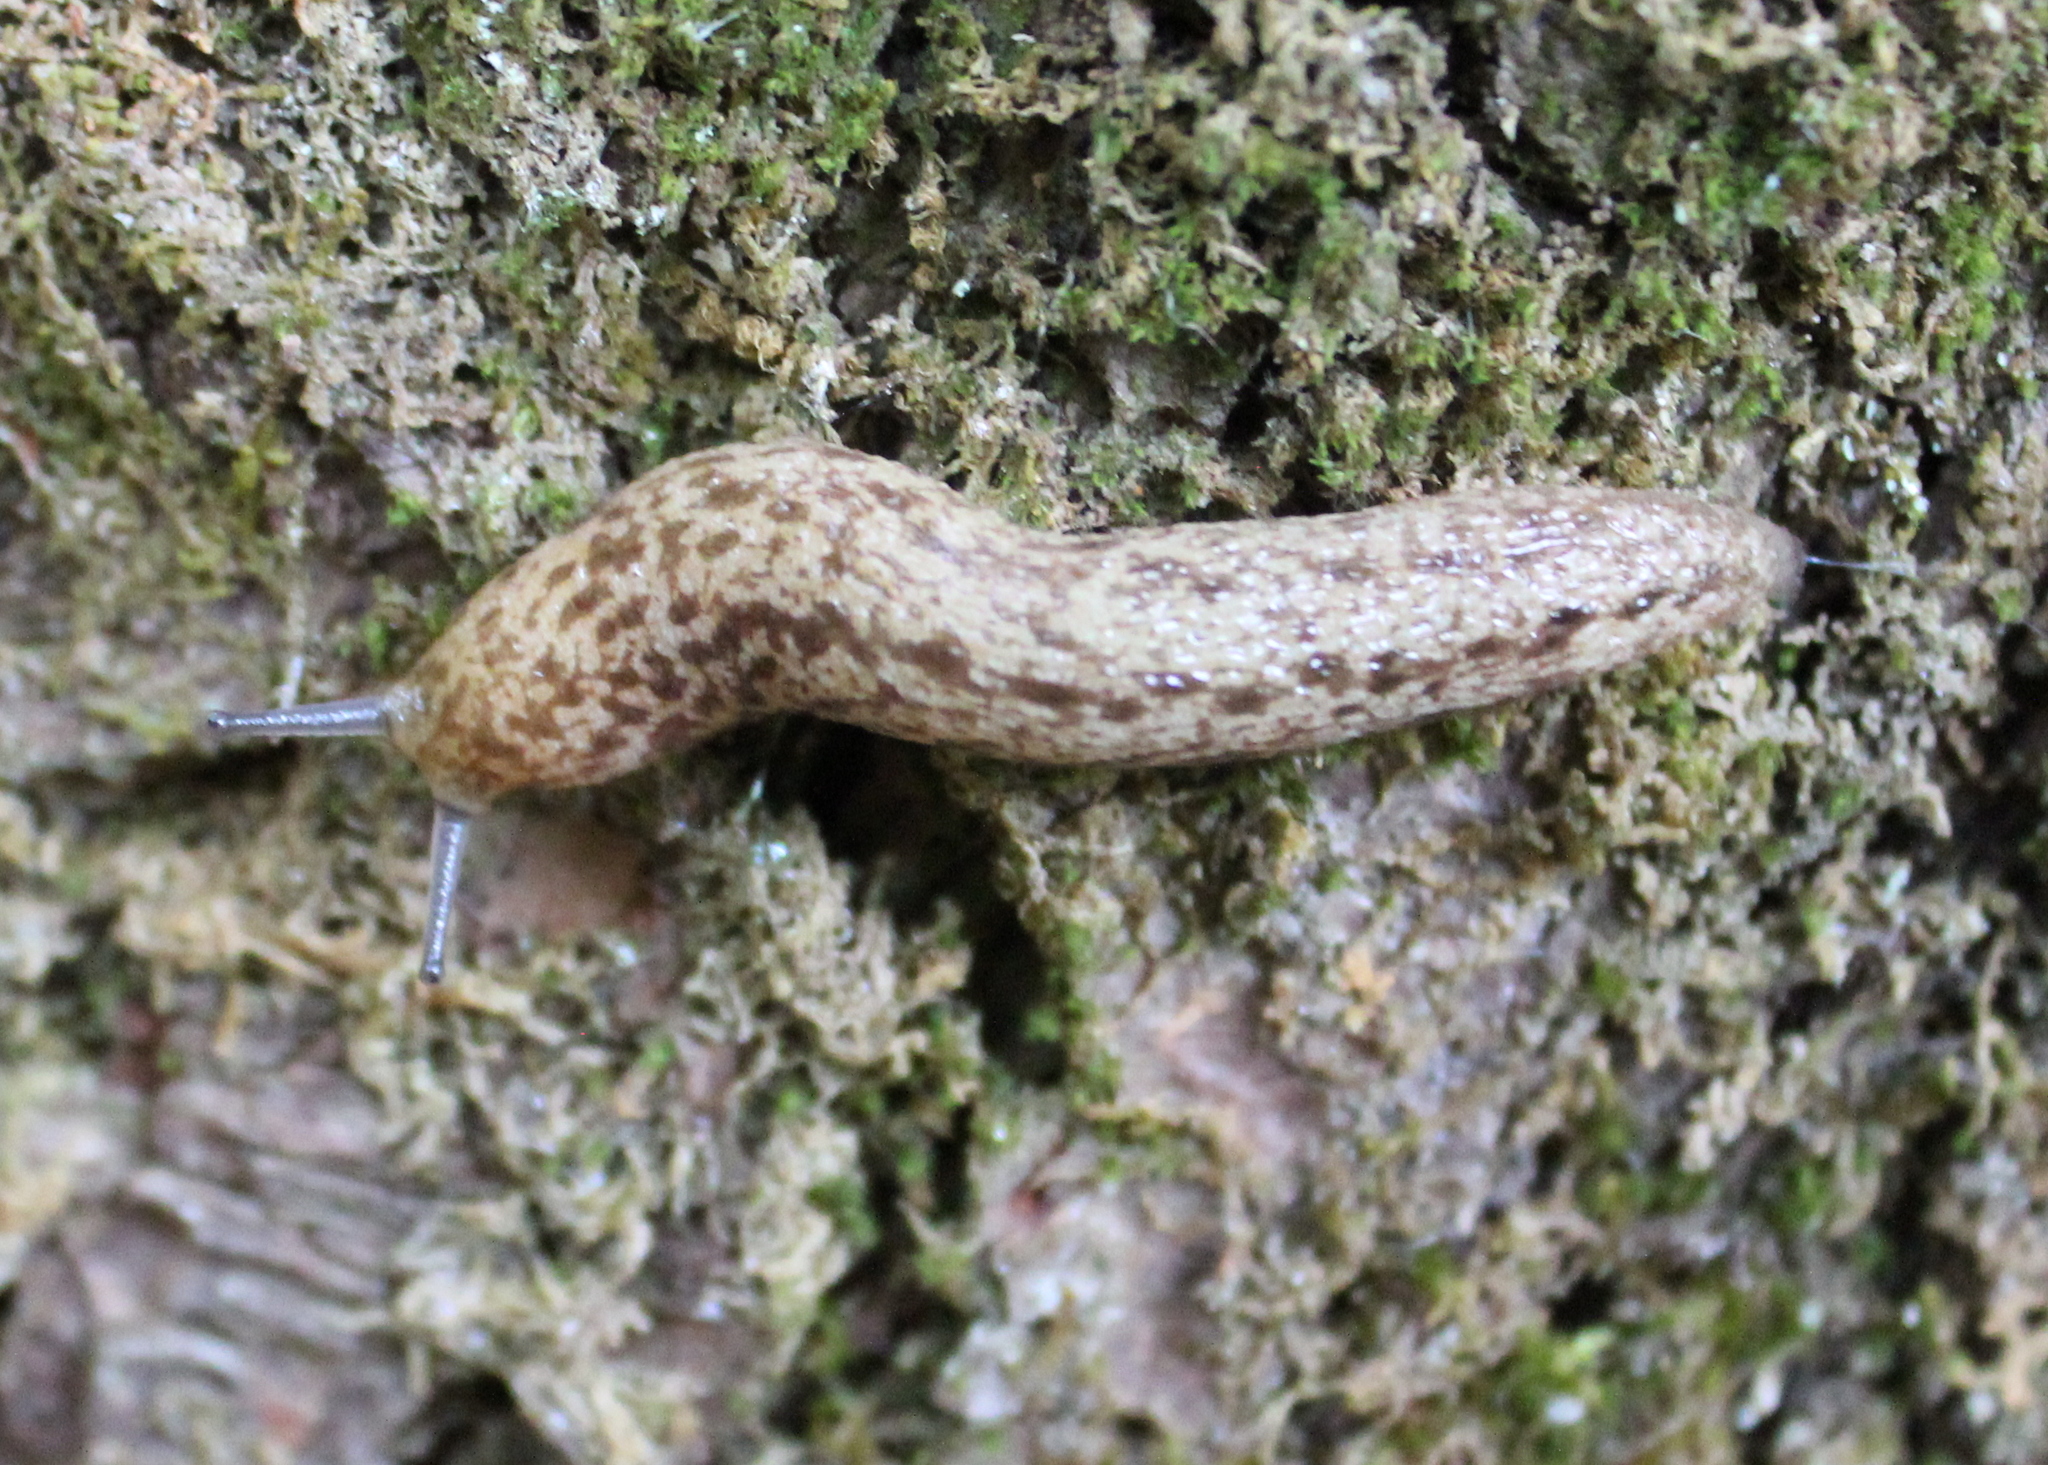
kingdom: Animalia
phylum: Mollusca
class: Gastropoda
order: Stylommatophora
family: Philomycidae
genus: Philomycus
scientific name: Philomycus flexuolaris
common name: Winding mantleslug
